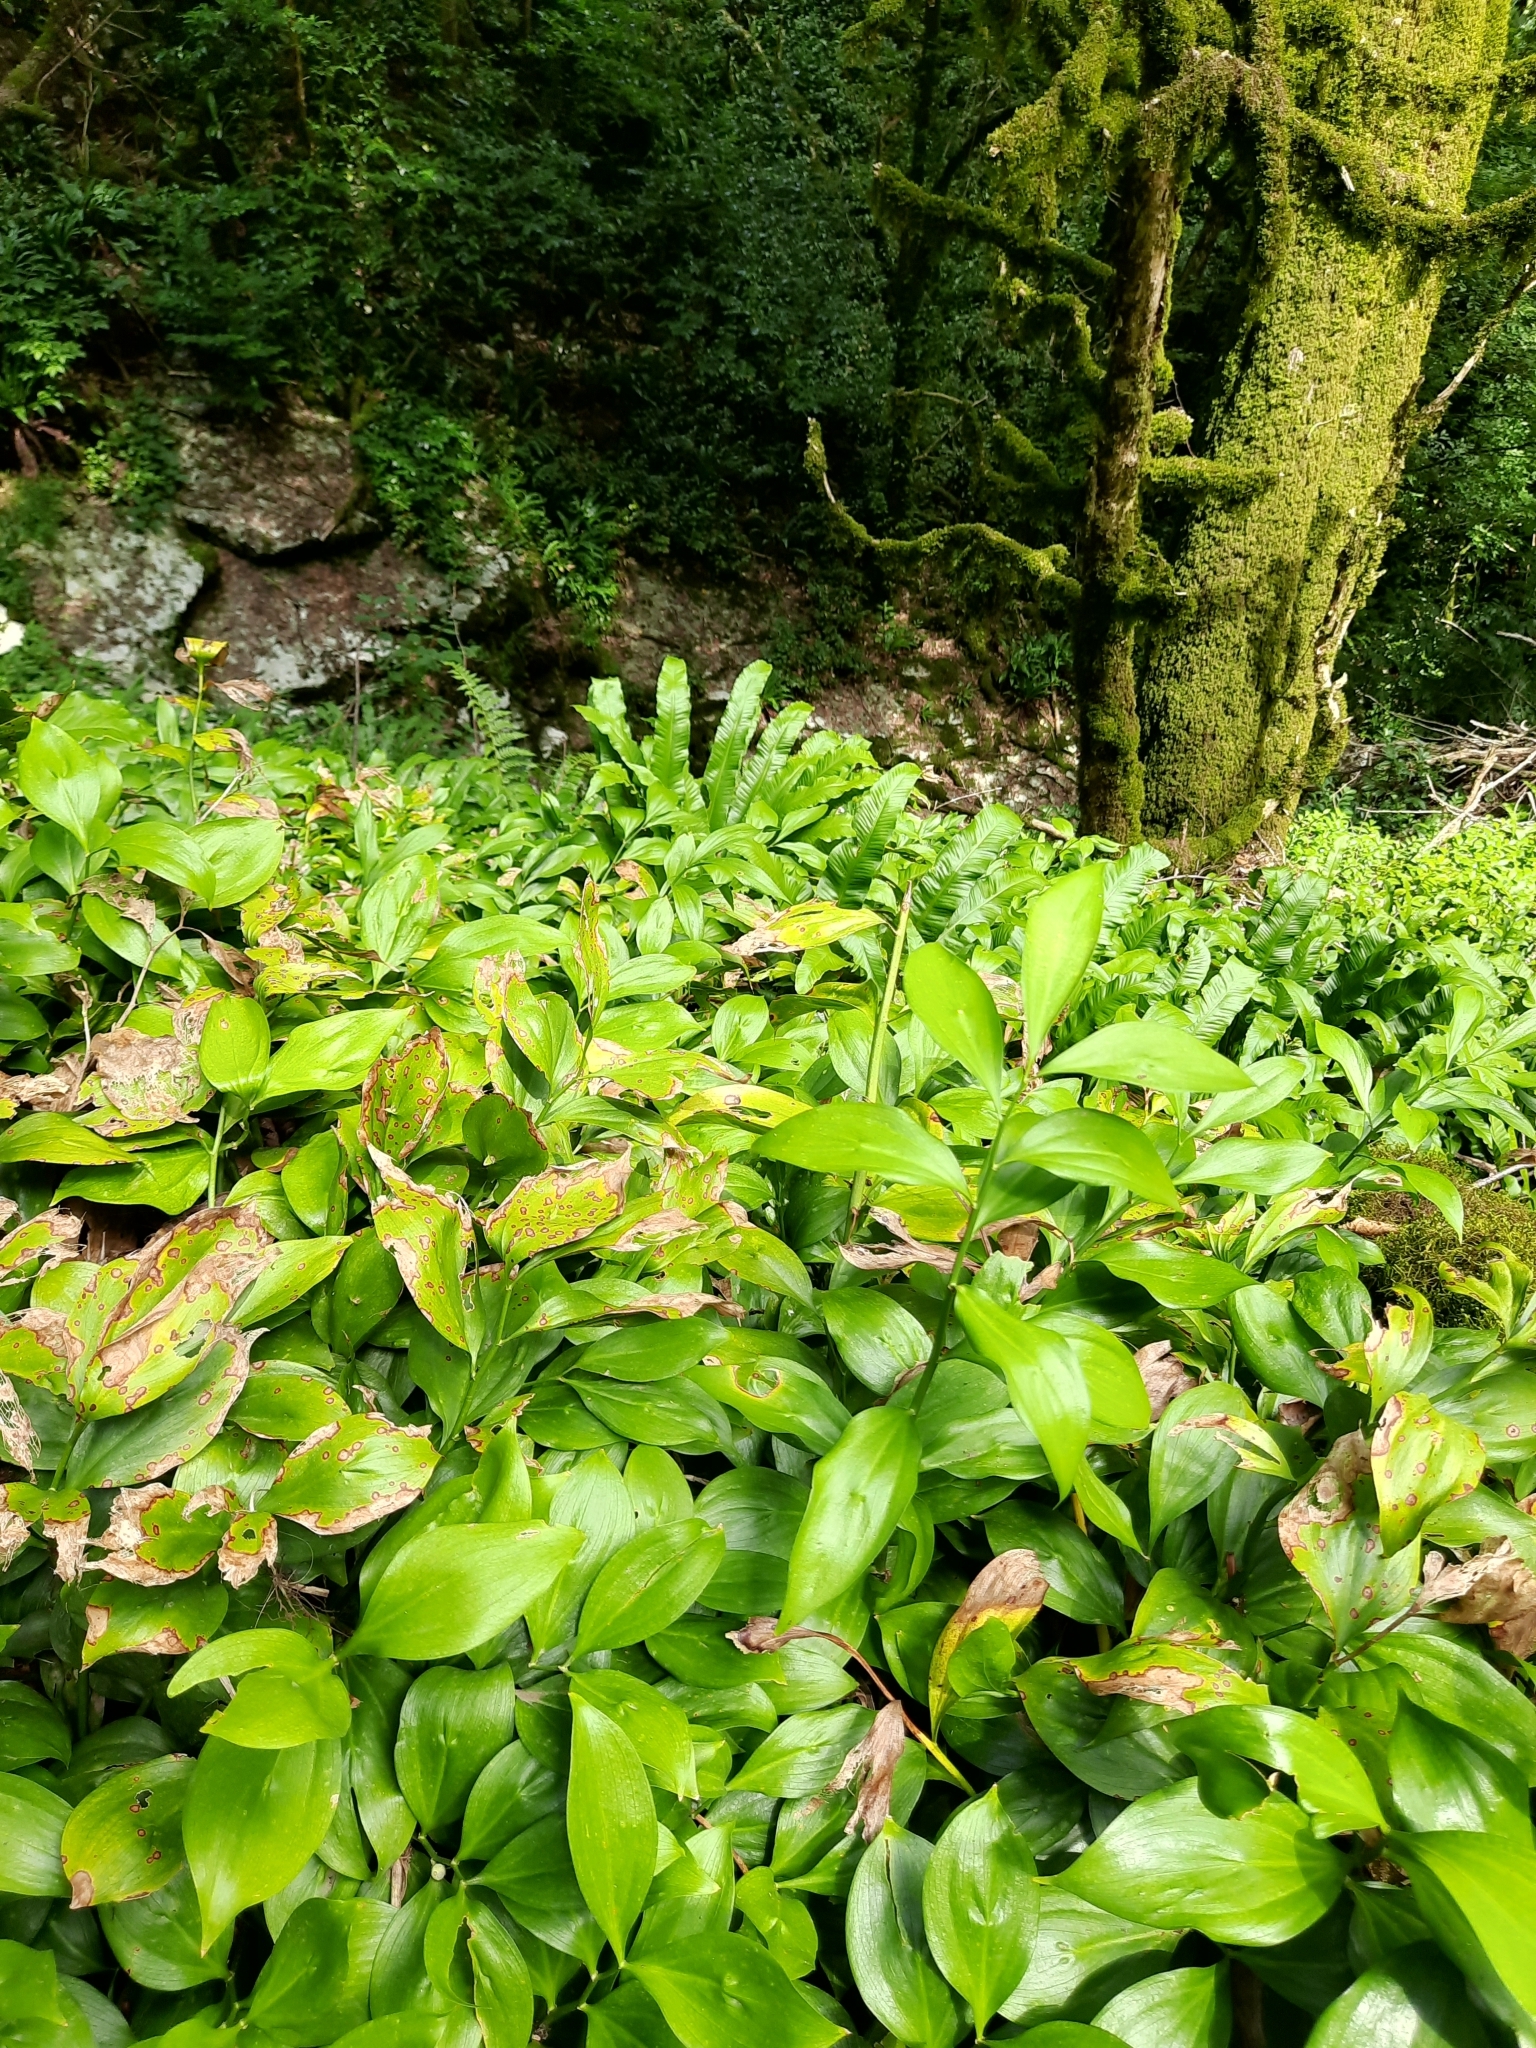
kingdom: Plantae
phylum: Tracheophyta
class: Liliopsida
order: Asparagales
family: Asparagaceae
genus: Ruscus
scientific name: Ruscus colchicus
